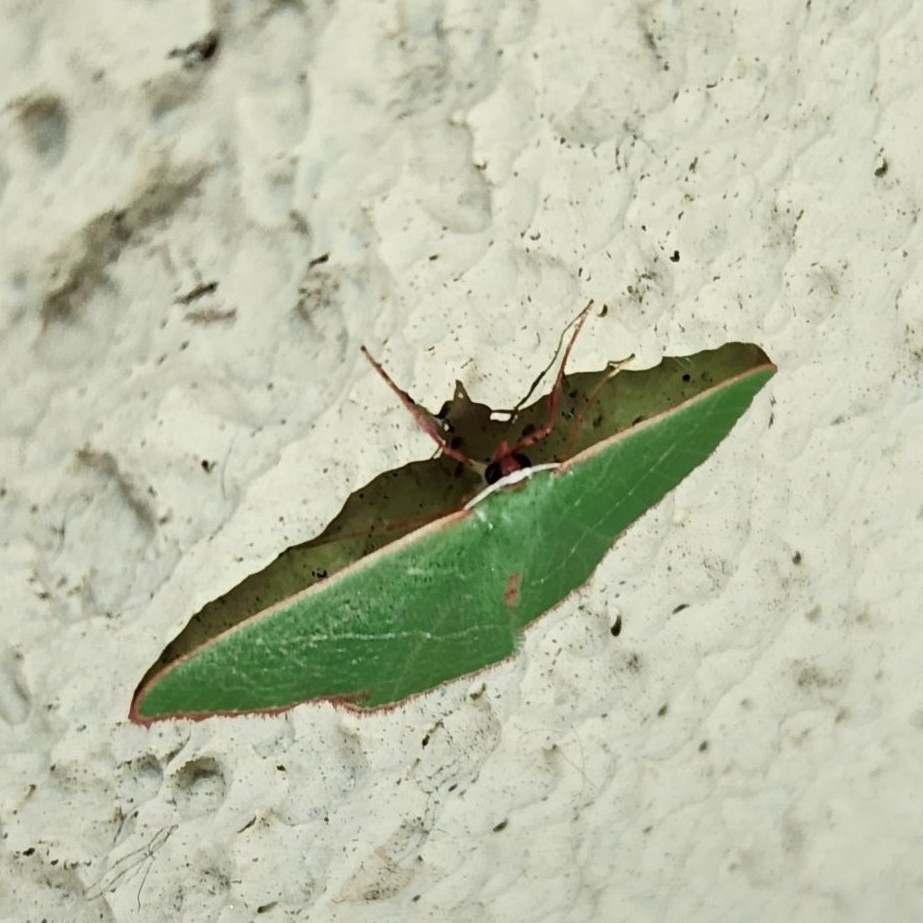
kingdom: Animalia
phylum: Arthropoda
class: Insecta
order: Lepidoptera
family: Geometridae
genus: Nemoria
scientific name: Nemoria leptalea
